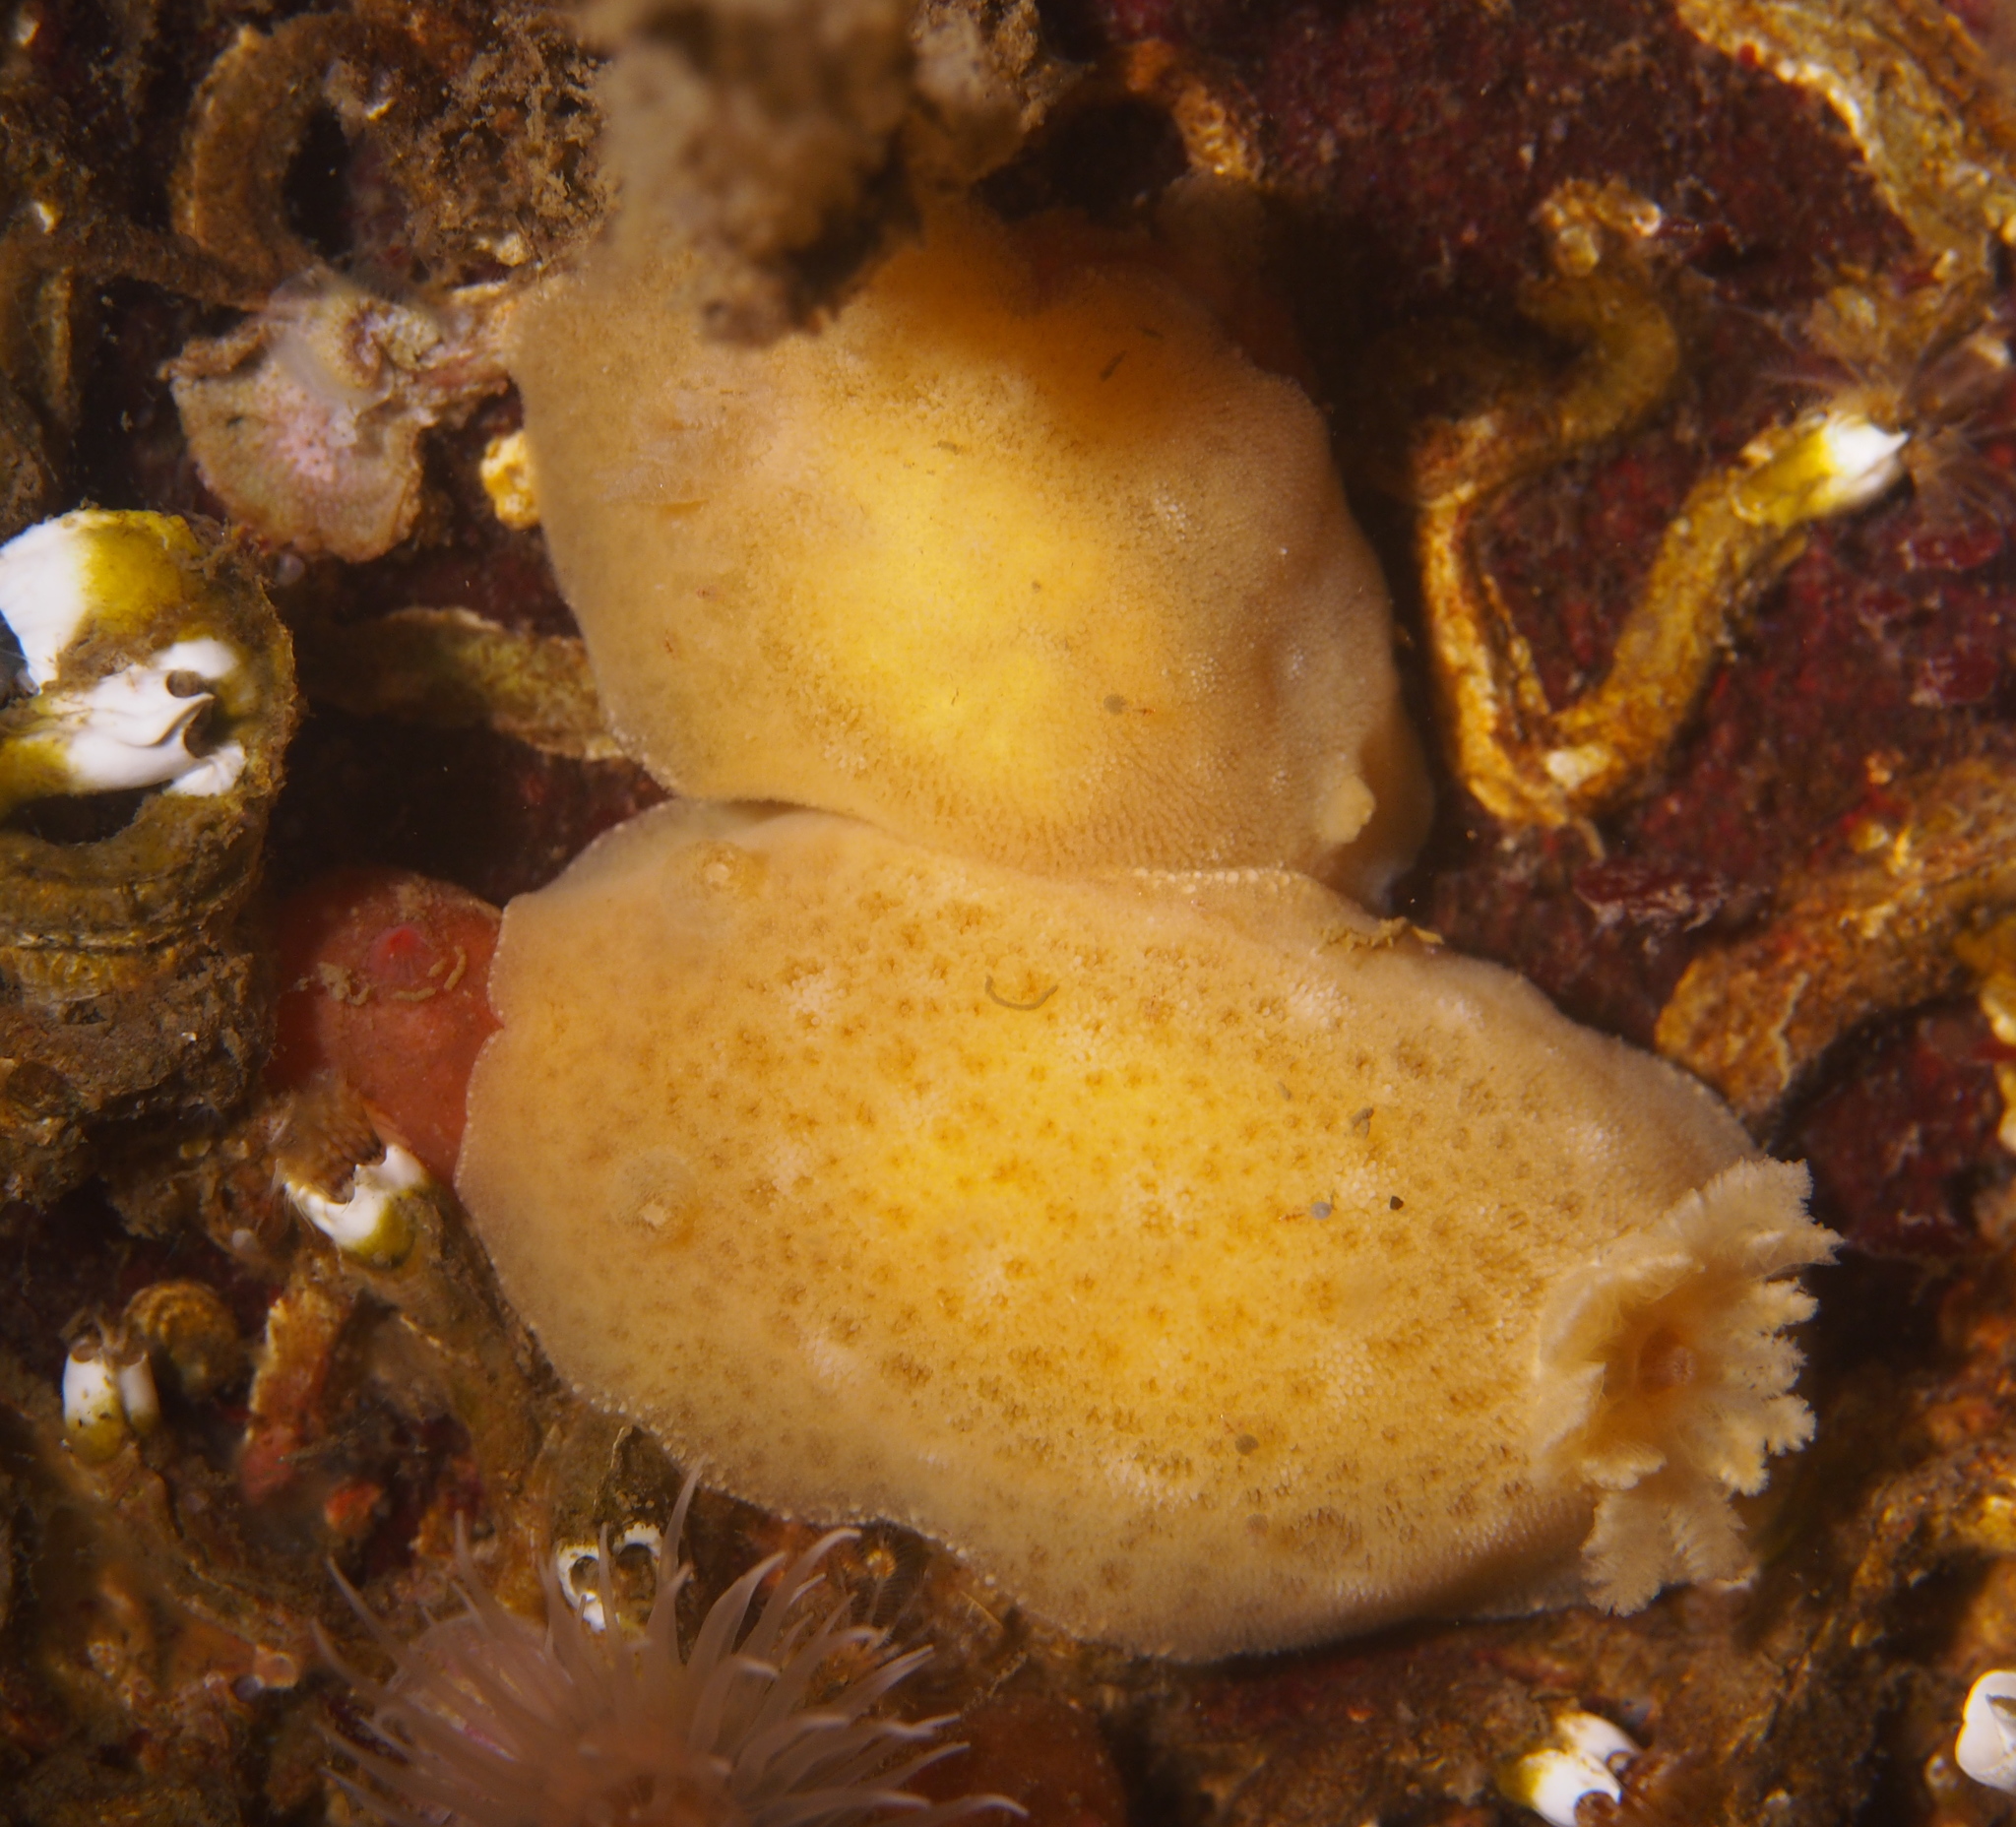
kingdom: Animalia
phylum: Mollusca
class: Gastropoda
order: Nudibranchia
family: Discodorididae
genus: Jorunna
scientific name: Jorunna tomentosa
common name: Grey sea slug
